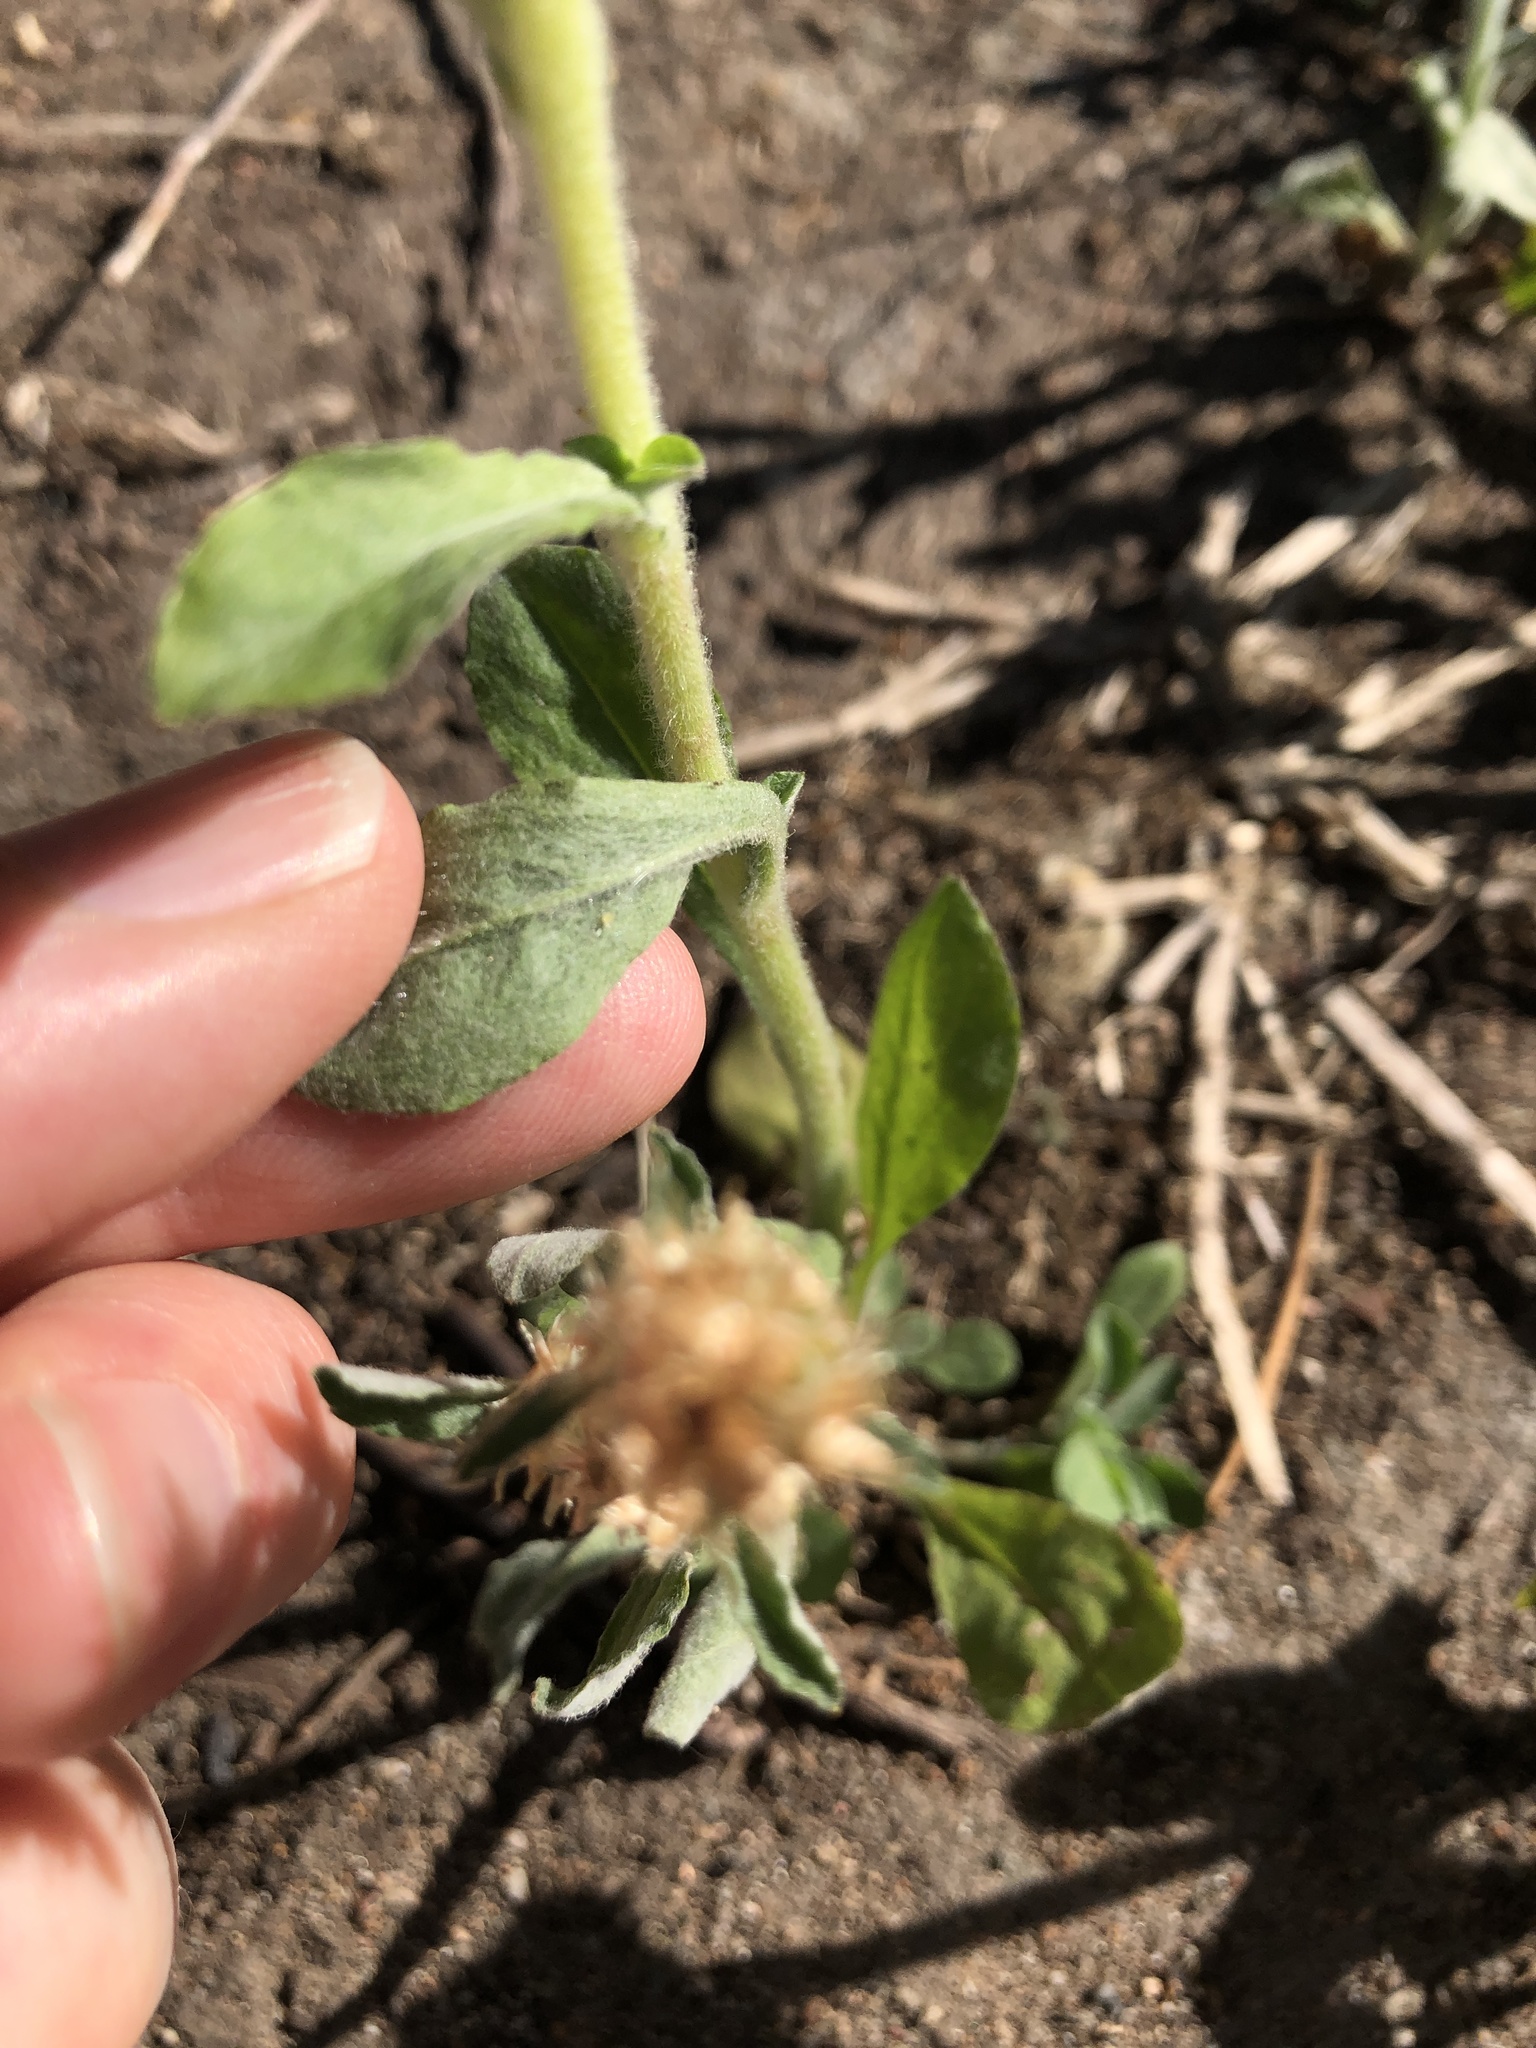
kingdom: Plantae
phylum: Tracheophyta
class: Magnoliopsida
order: Asterales
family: Asteraceae
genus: Gamochaeta
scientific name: Gamochaeta pensylvanica
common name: Pennsylvania everlasting
